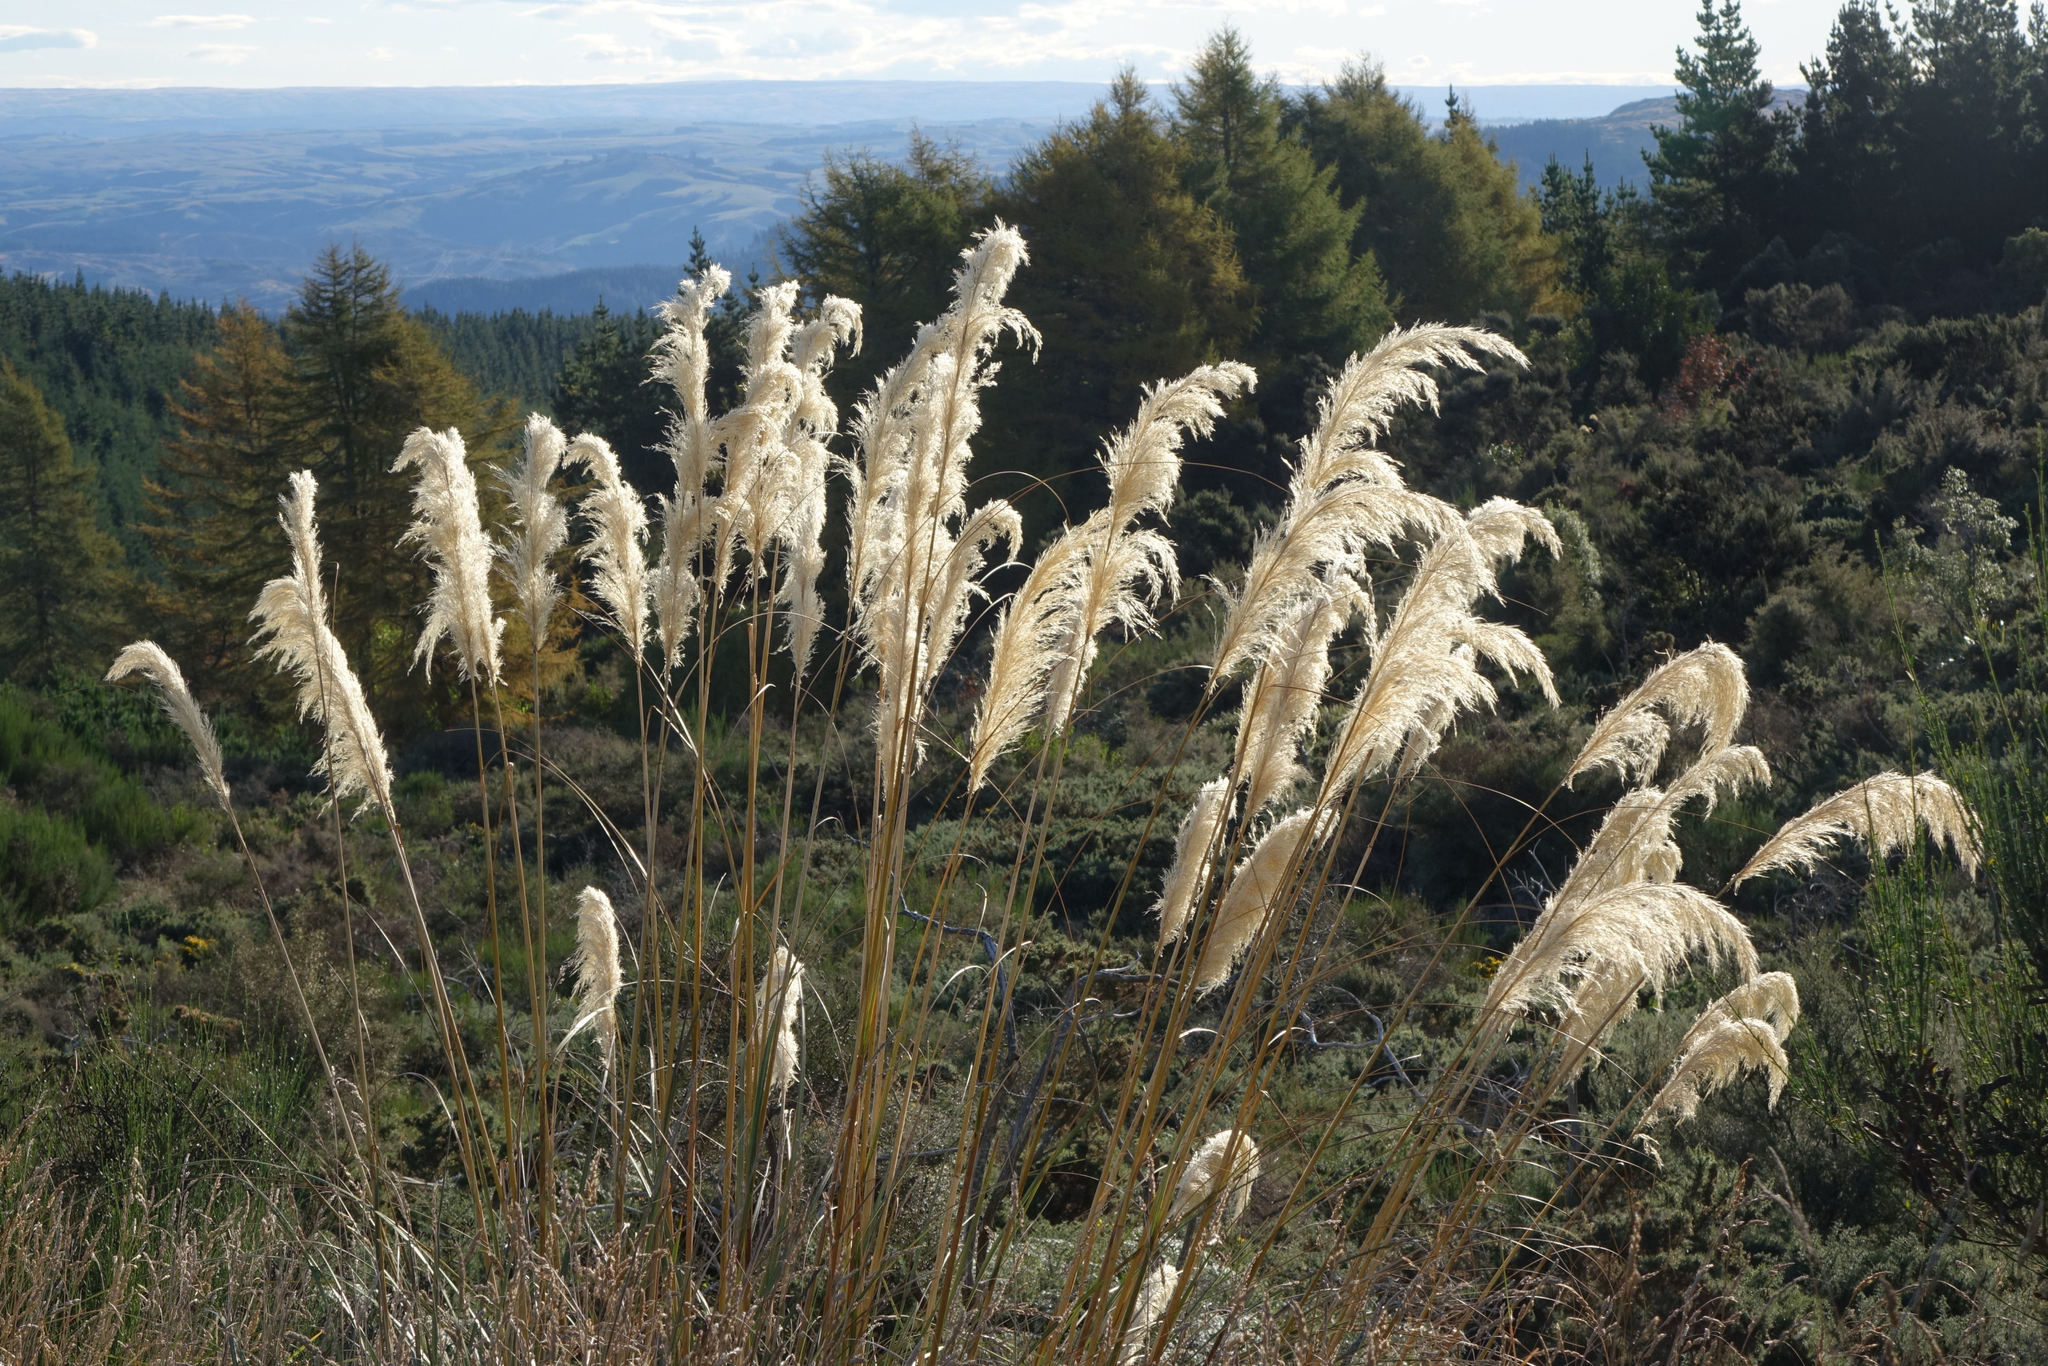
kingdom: Plantae
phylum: Tracheophyta
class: Liliopsida
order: Poales
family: Poaceae
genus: Austroderia
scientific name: Austroderia richardii
